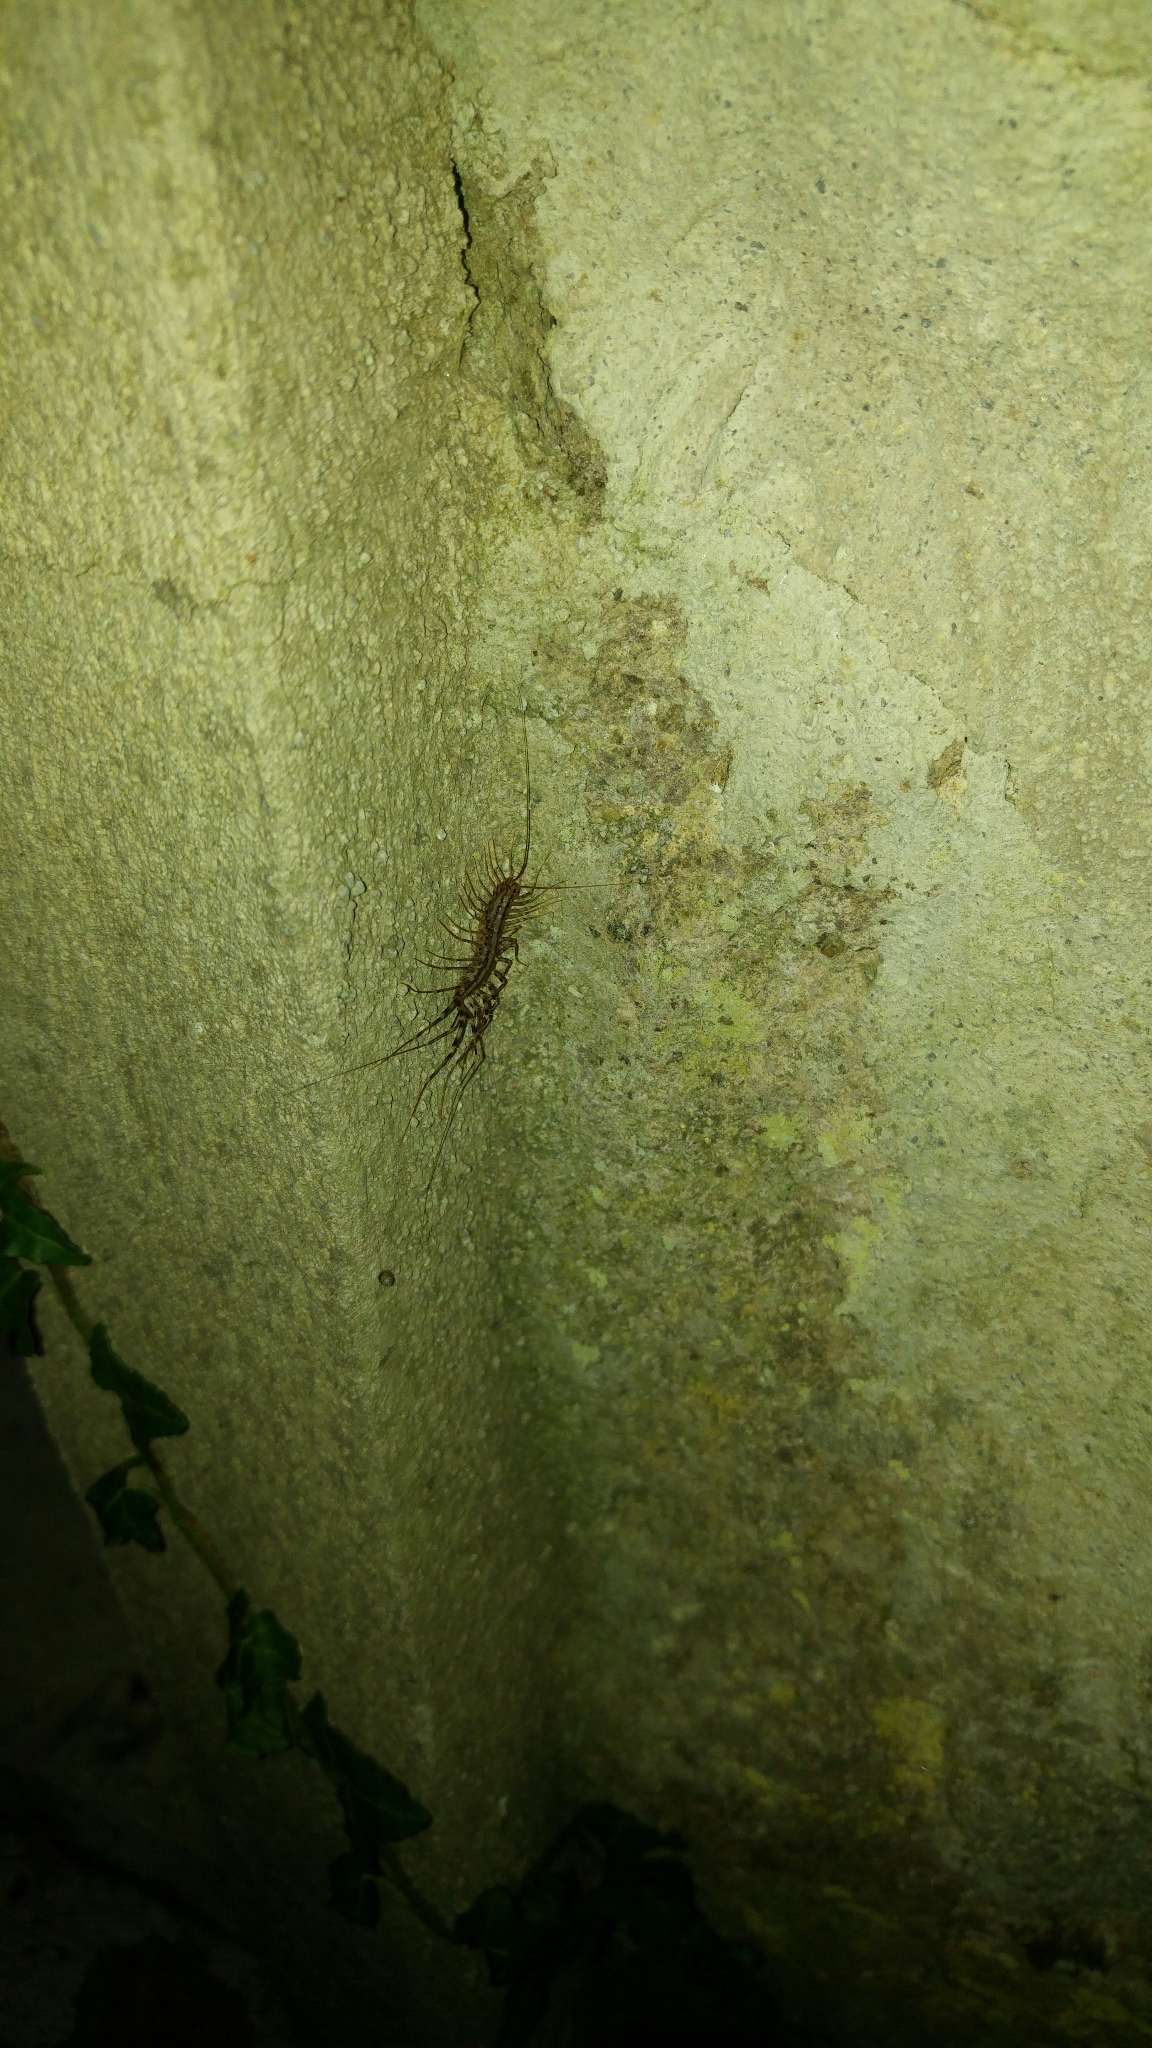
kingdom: Animalia
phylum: Arthropoda
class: Chilopoda
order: Scutigeromorpha
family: Scutigeridae
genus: Scutigera
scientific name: Scutigera coleoptrata
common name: House centipede
